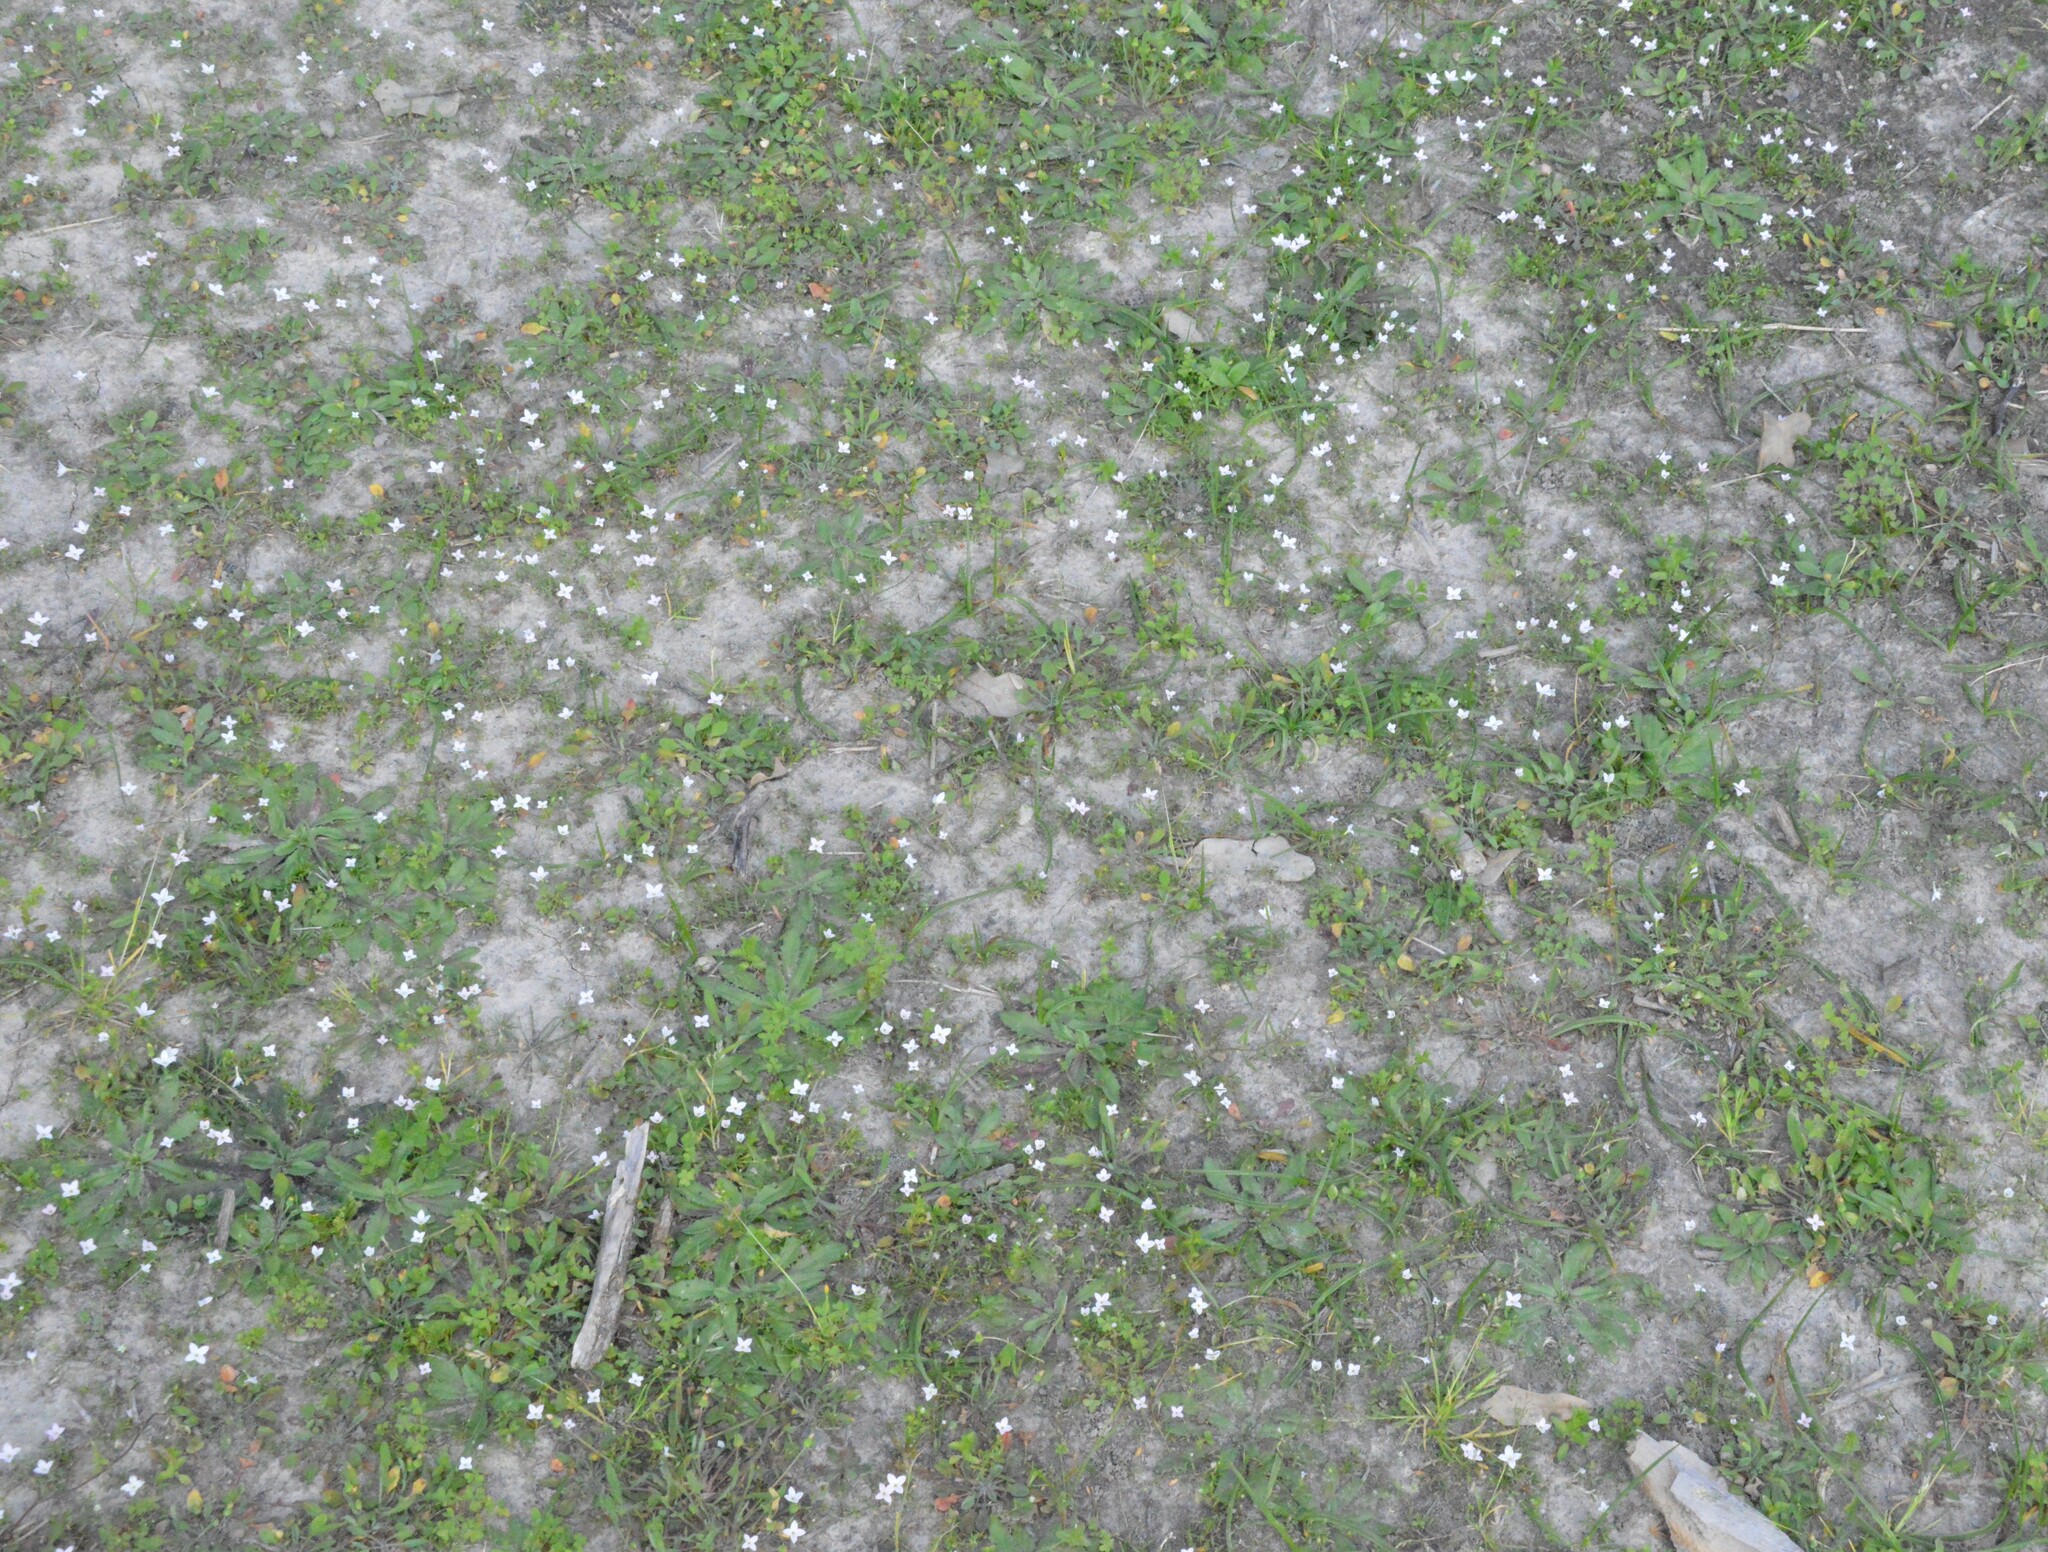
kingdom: Plantae
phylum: Tracheophyta
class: Magnoliopsida
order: Gentianales
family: Rubiaceae
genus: Houstonia
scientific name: Houstonia rosea
